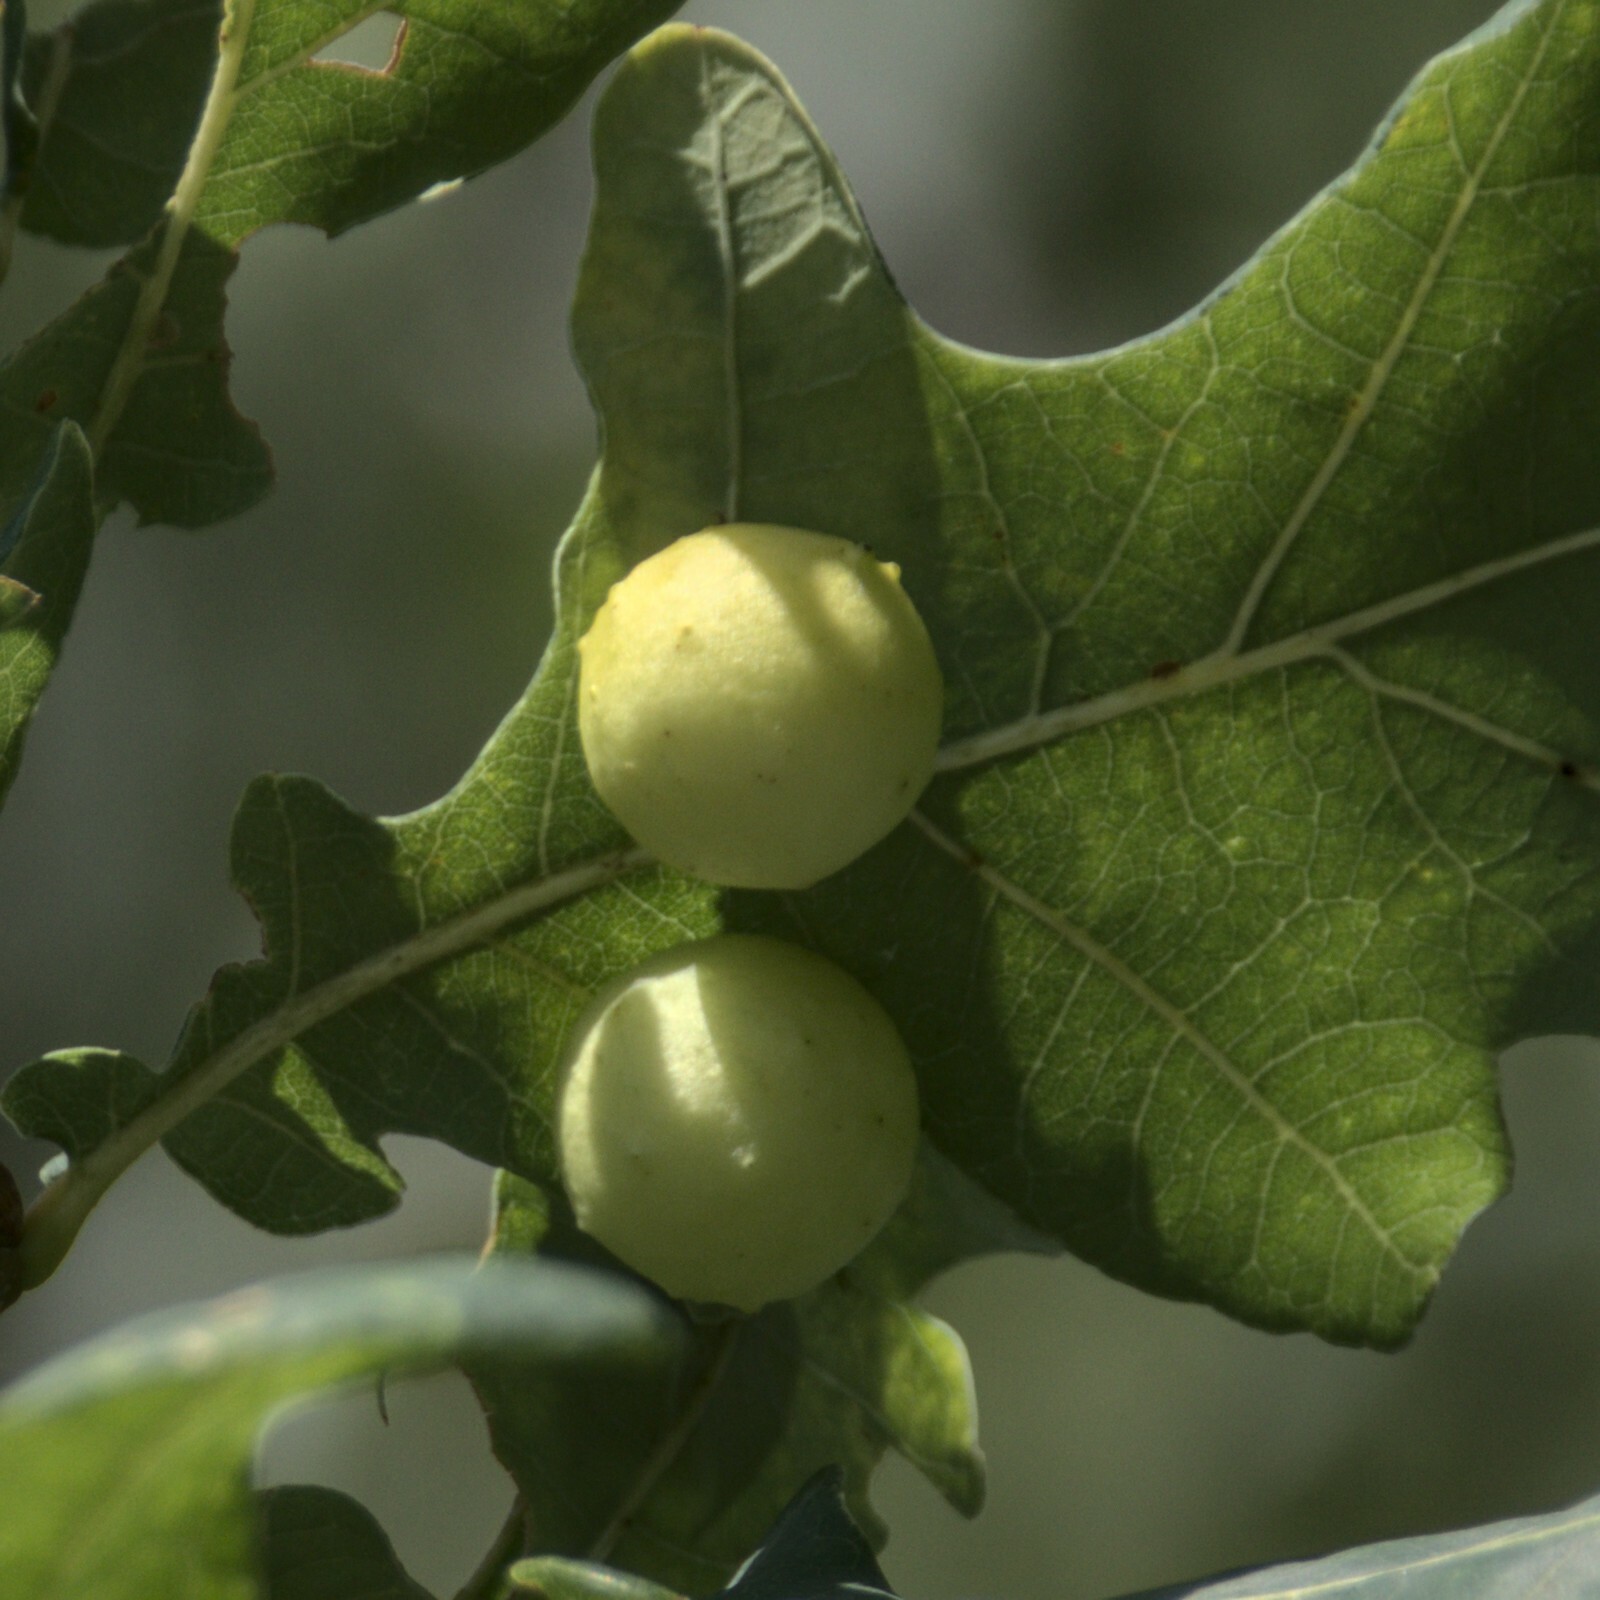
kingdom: Animalia
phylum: Arthropoda
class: Insecta
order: Hymenoptera
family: Cynipidae
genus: Cynips
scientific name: Cynips quercusfolii
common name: Cherry gall
